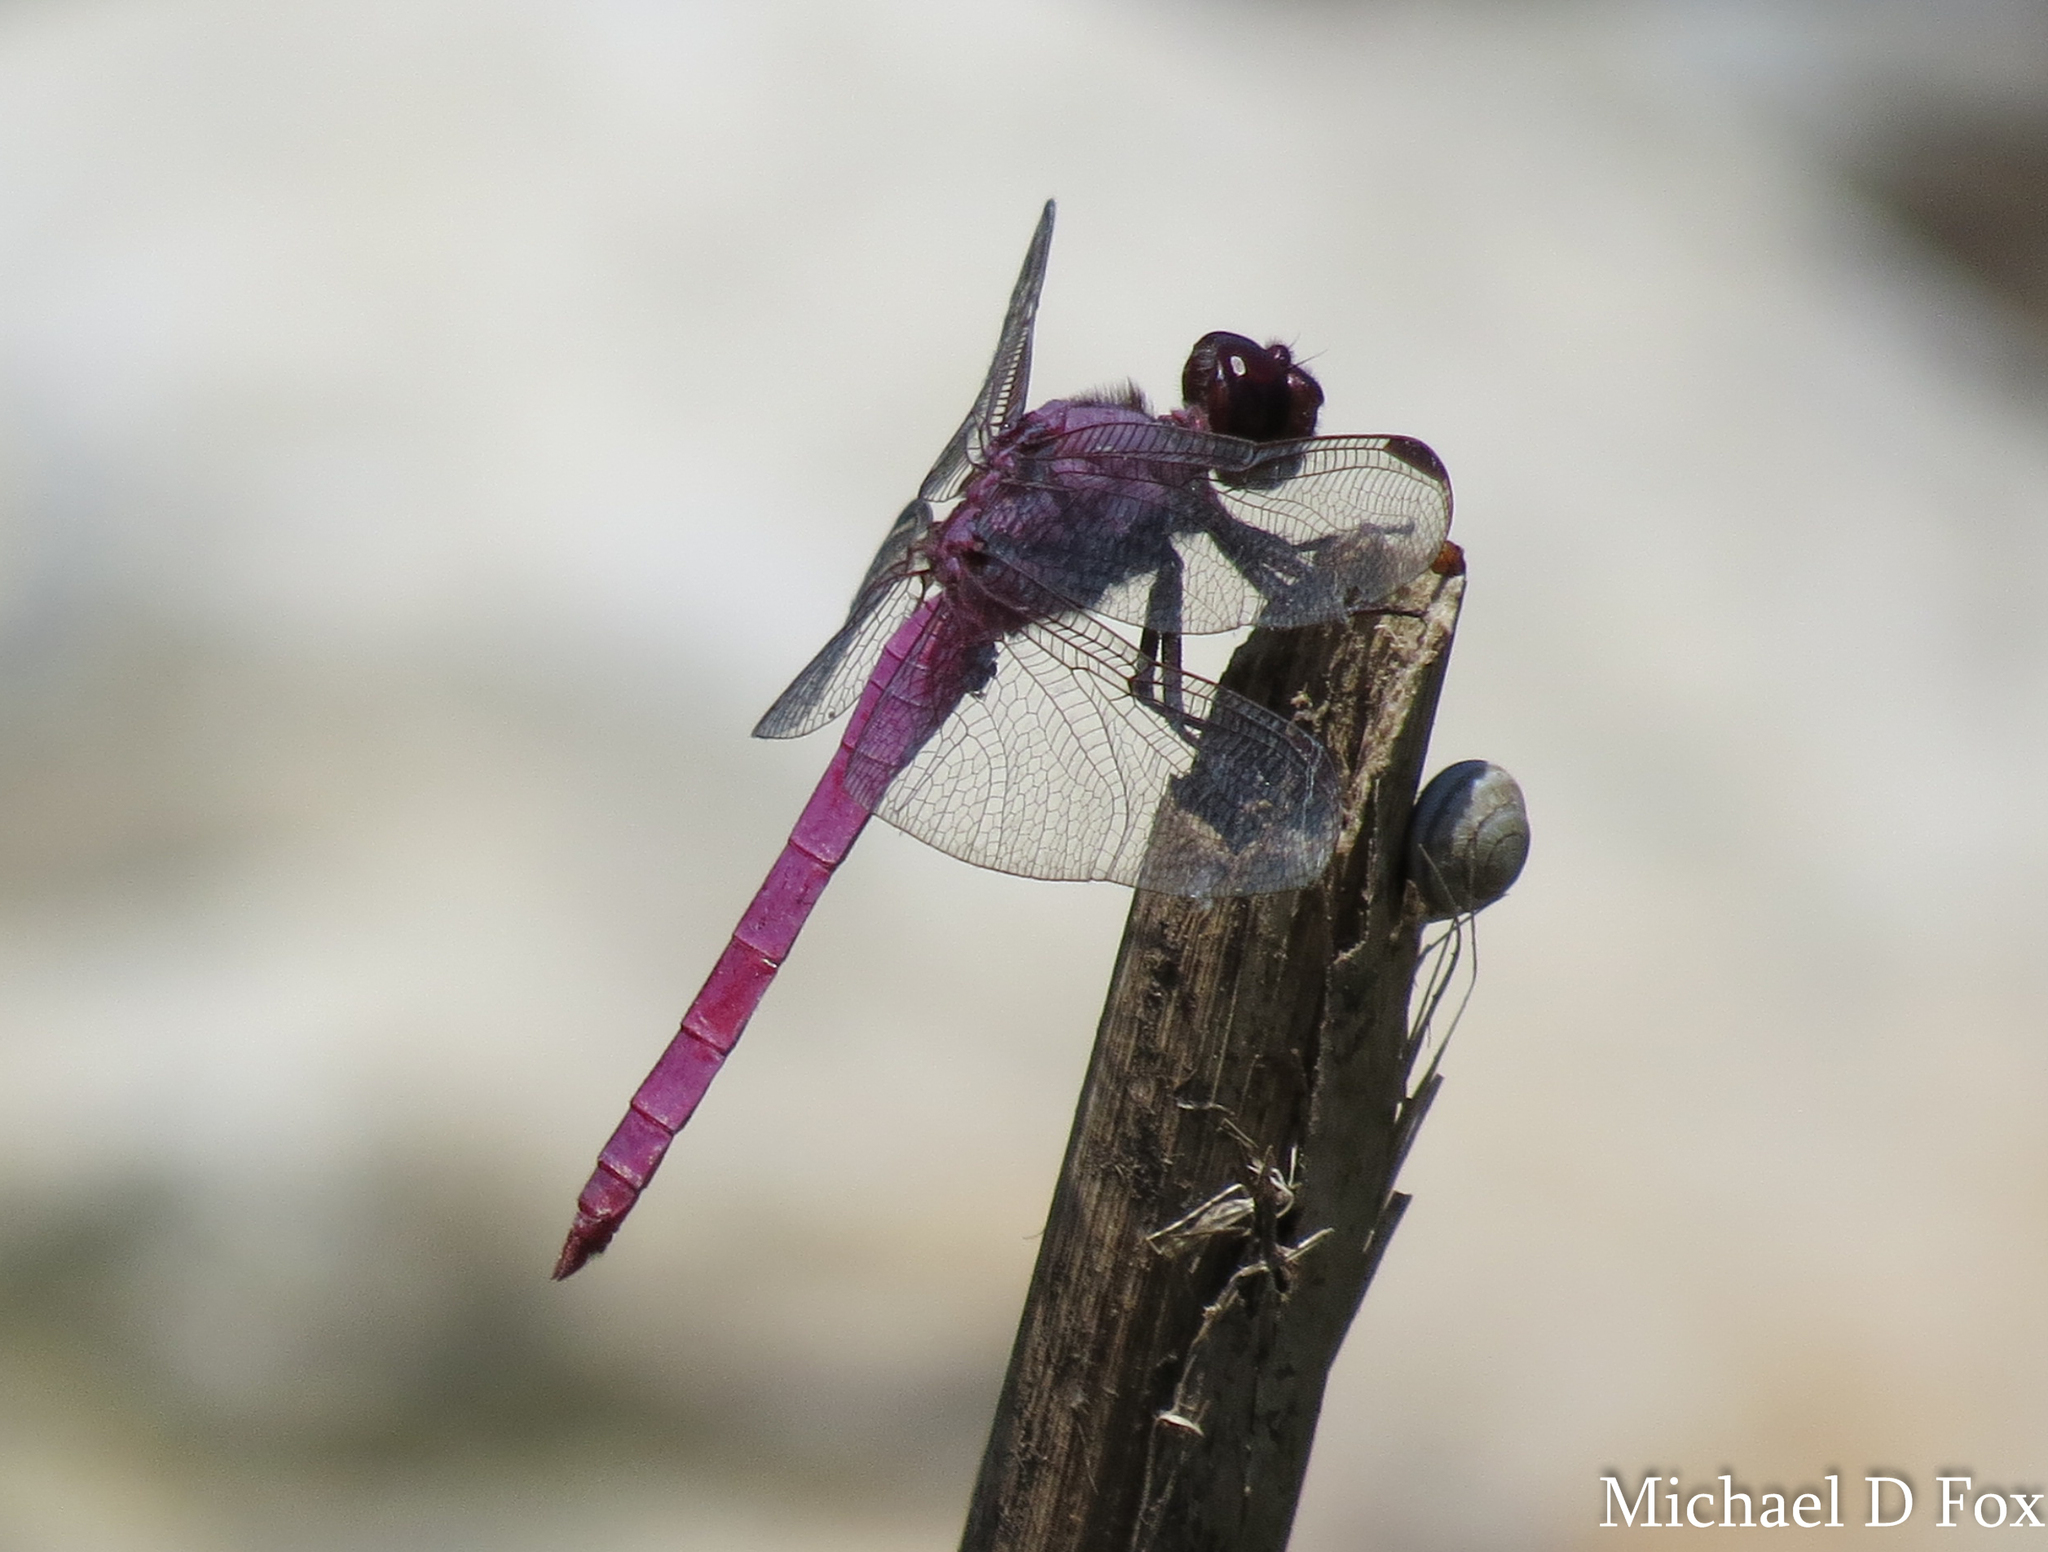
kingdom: Animalia
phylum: Arthropoda
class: Insecta
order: Odonata
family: Libellulidae
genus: Orthemis
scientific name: Orthemis ferruginea
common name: Roseate skimmer
